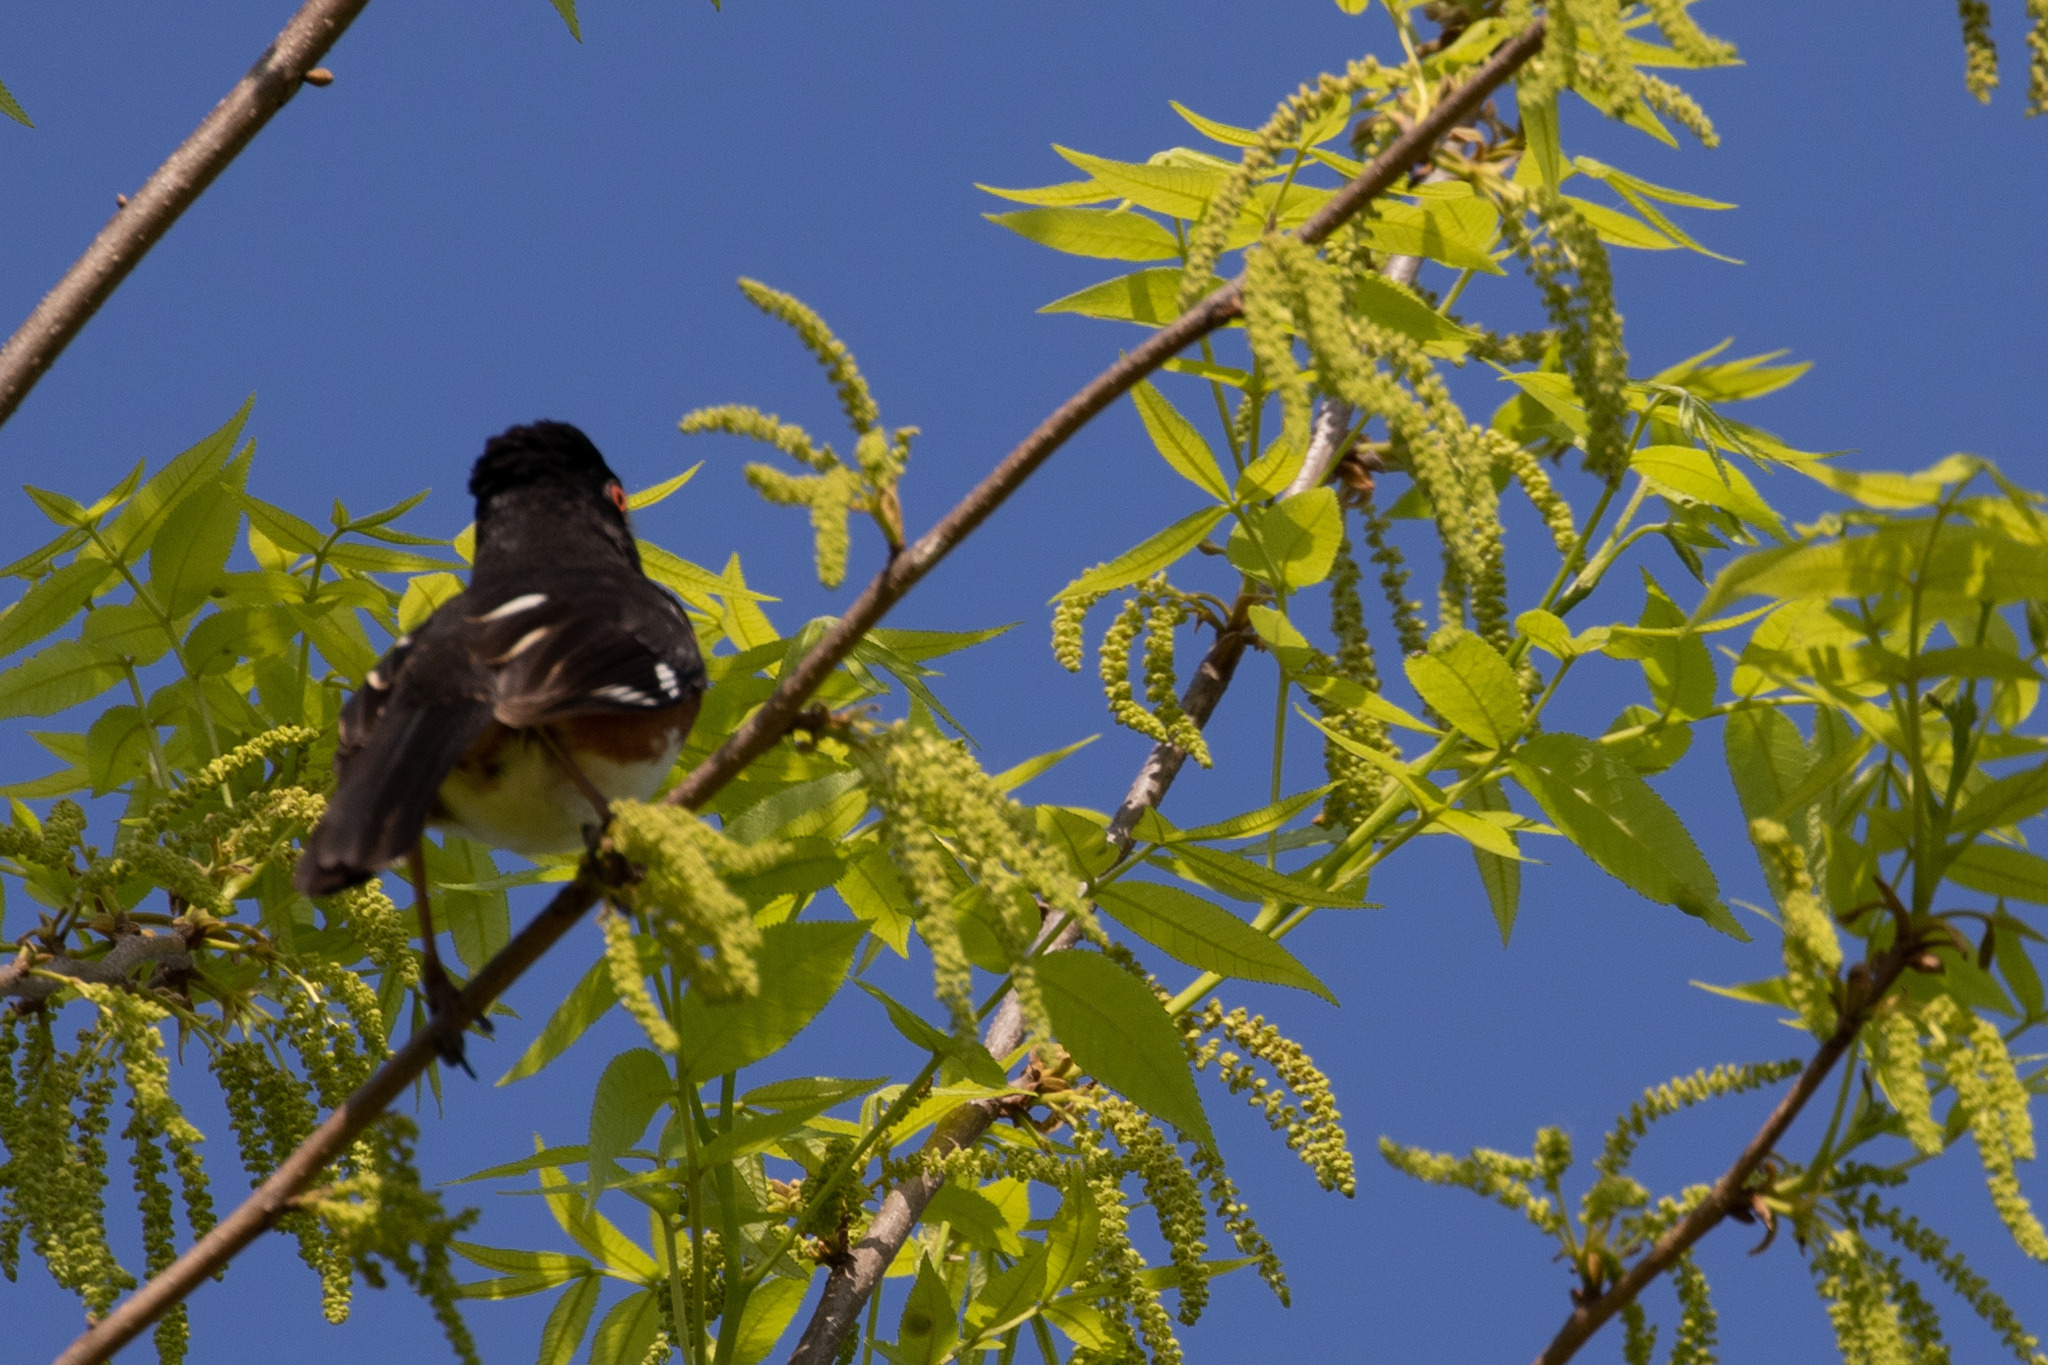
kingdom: Animalia
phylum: Chordata
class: Aves
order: Passeriformes
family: Passerellidae
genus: Pipilo
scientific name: Pipilo erythrophthalmus
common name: Eastern towhee
